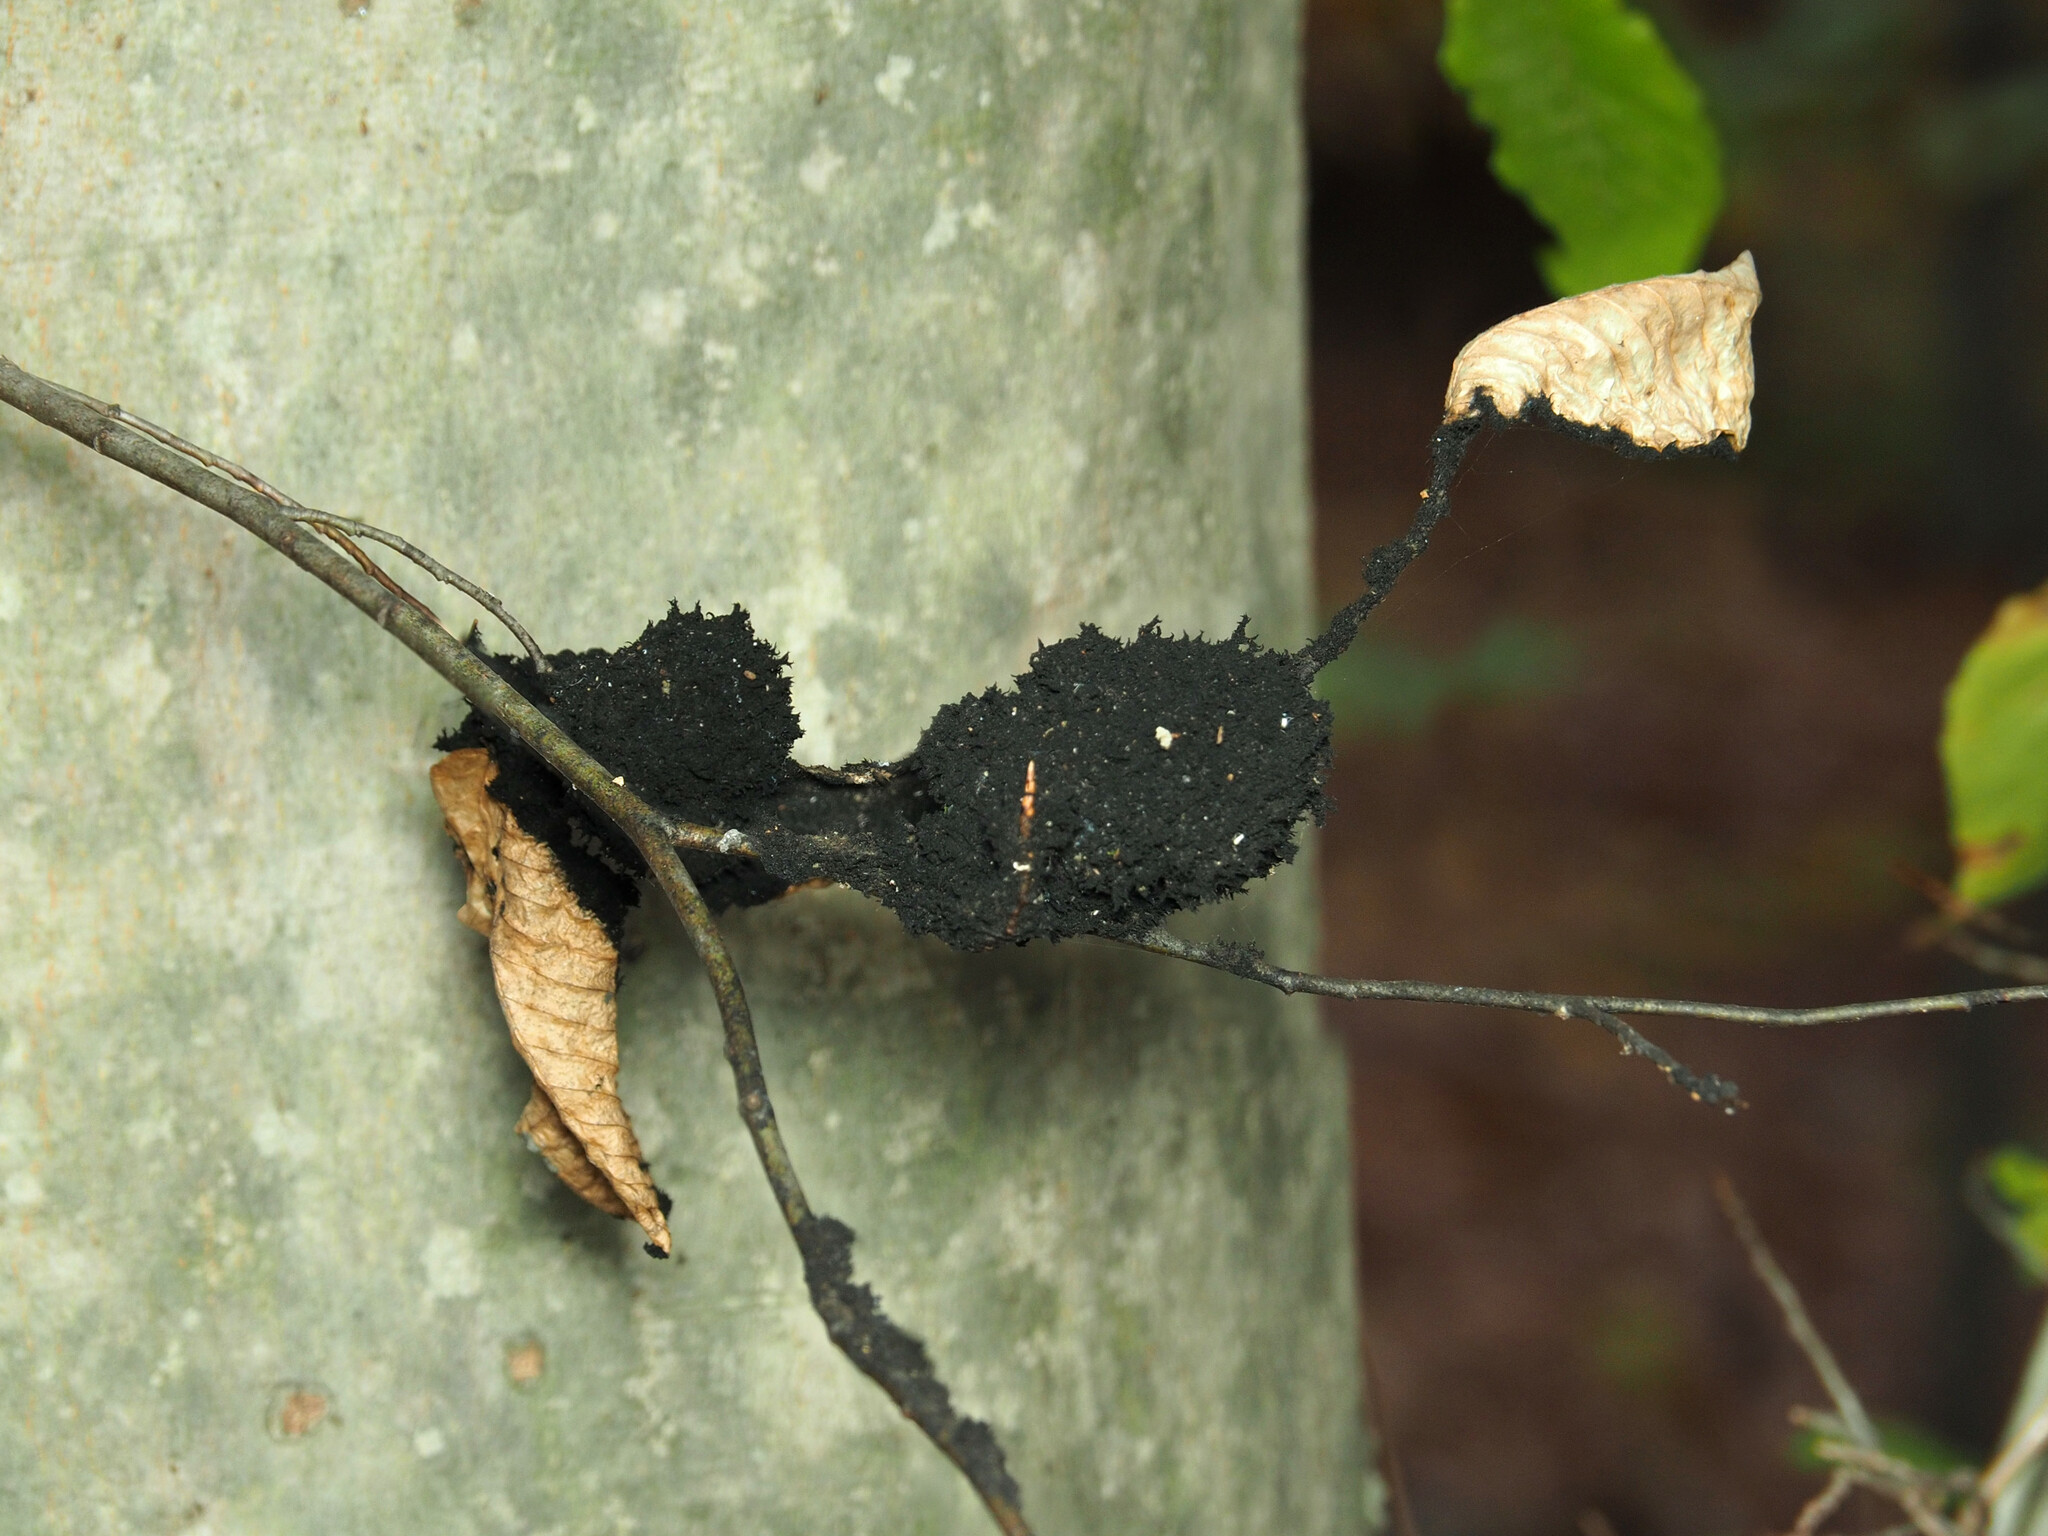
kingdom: Fungi
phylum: Ascomycota
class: Dothideomycetes
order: Capnodiales
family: Capnodiaceae
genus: Scorias
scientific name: Scorias spongiosa
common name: Black sooty mold
